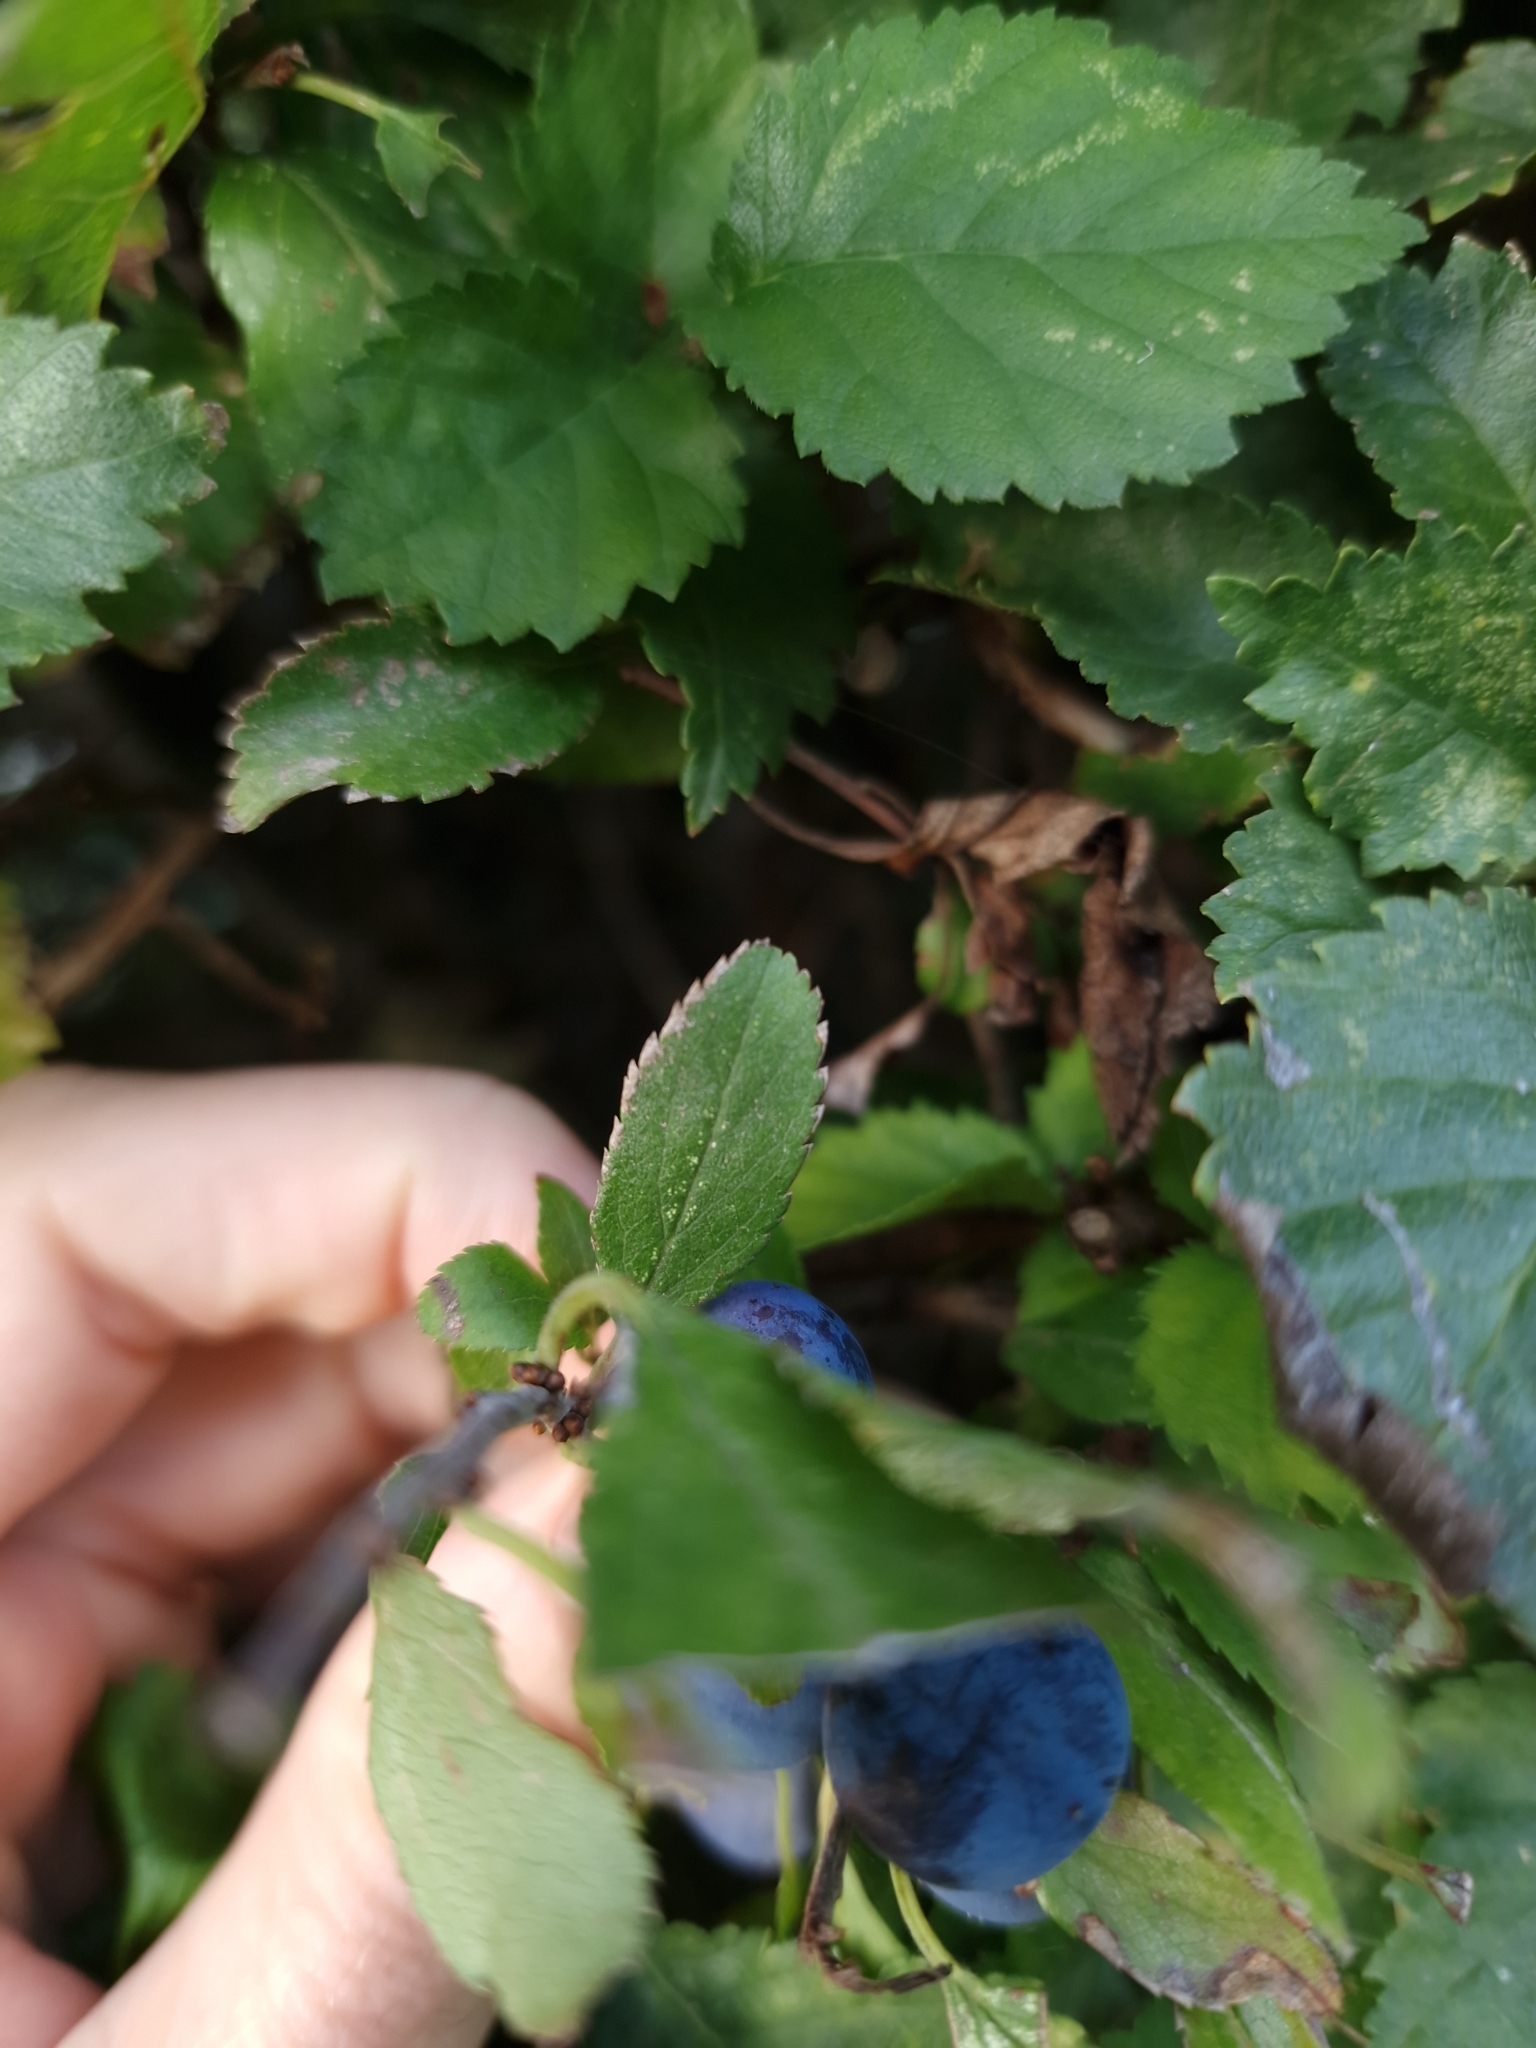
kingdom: Plantae
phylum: Tracheophyta
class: Magnoliopsida
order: Rosales
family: Rosaceae
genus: Prunus
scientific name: Prunus spinosa
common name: Blackthorn
